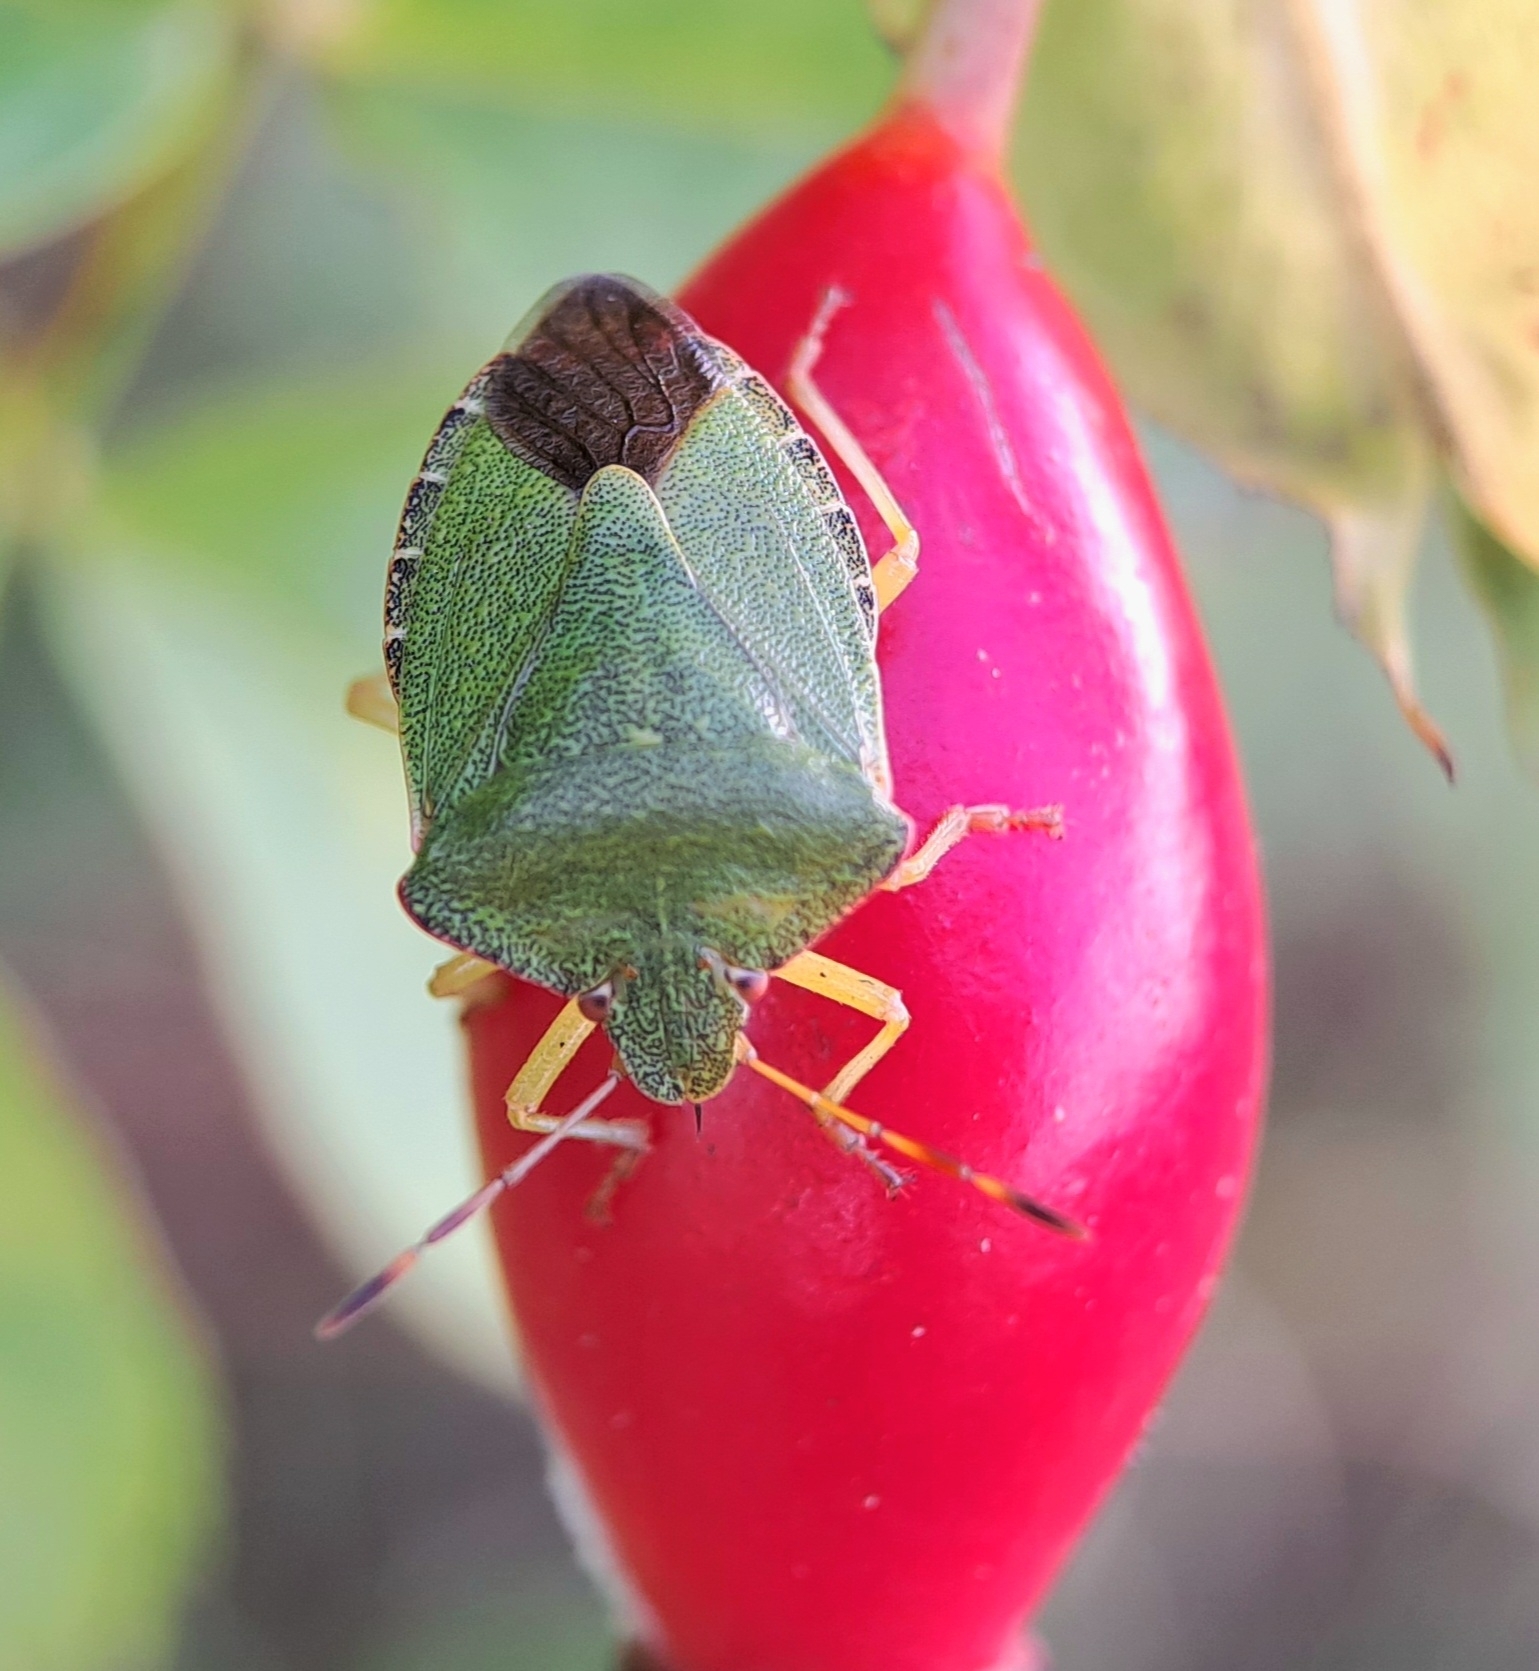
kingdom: Animalia
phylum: Arthropoda
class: Insecta
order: Hemiptera
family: Pentatomidae
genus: Palomena
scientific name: Palomena prasina
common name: Green shieldbug
